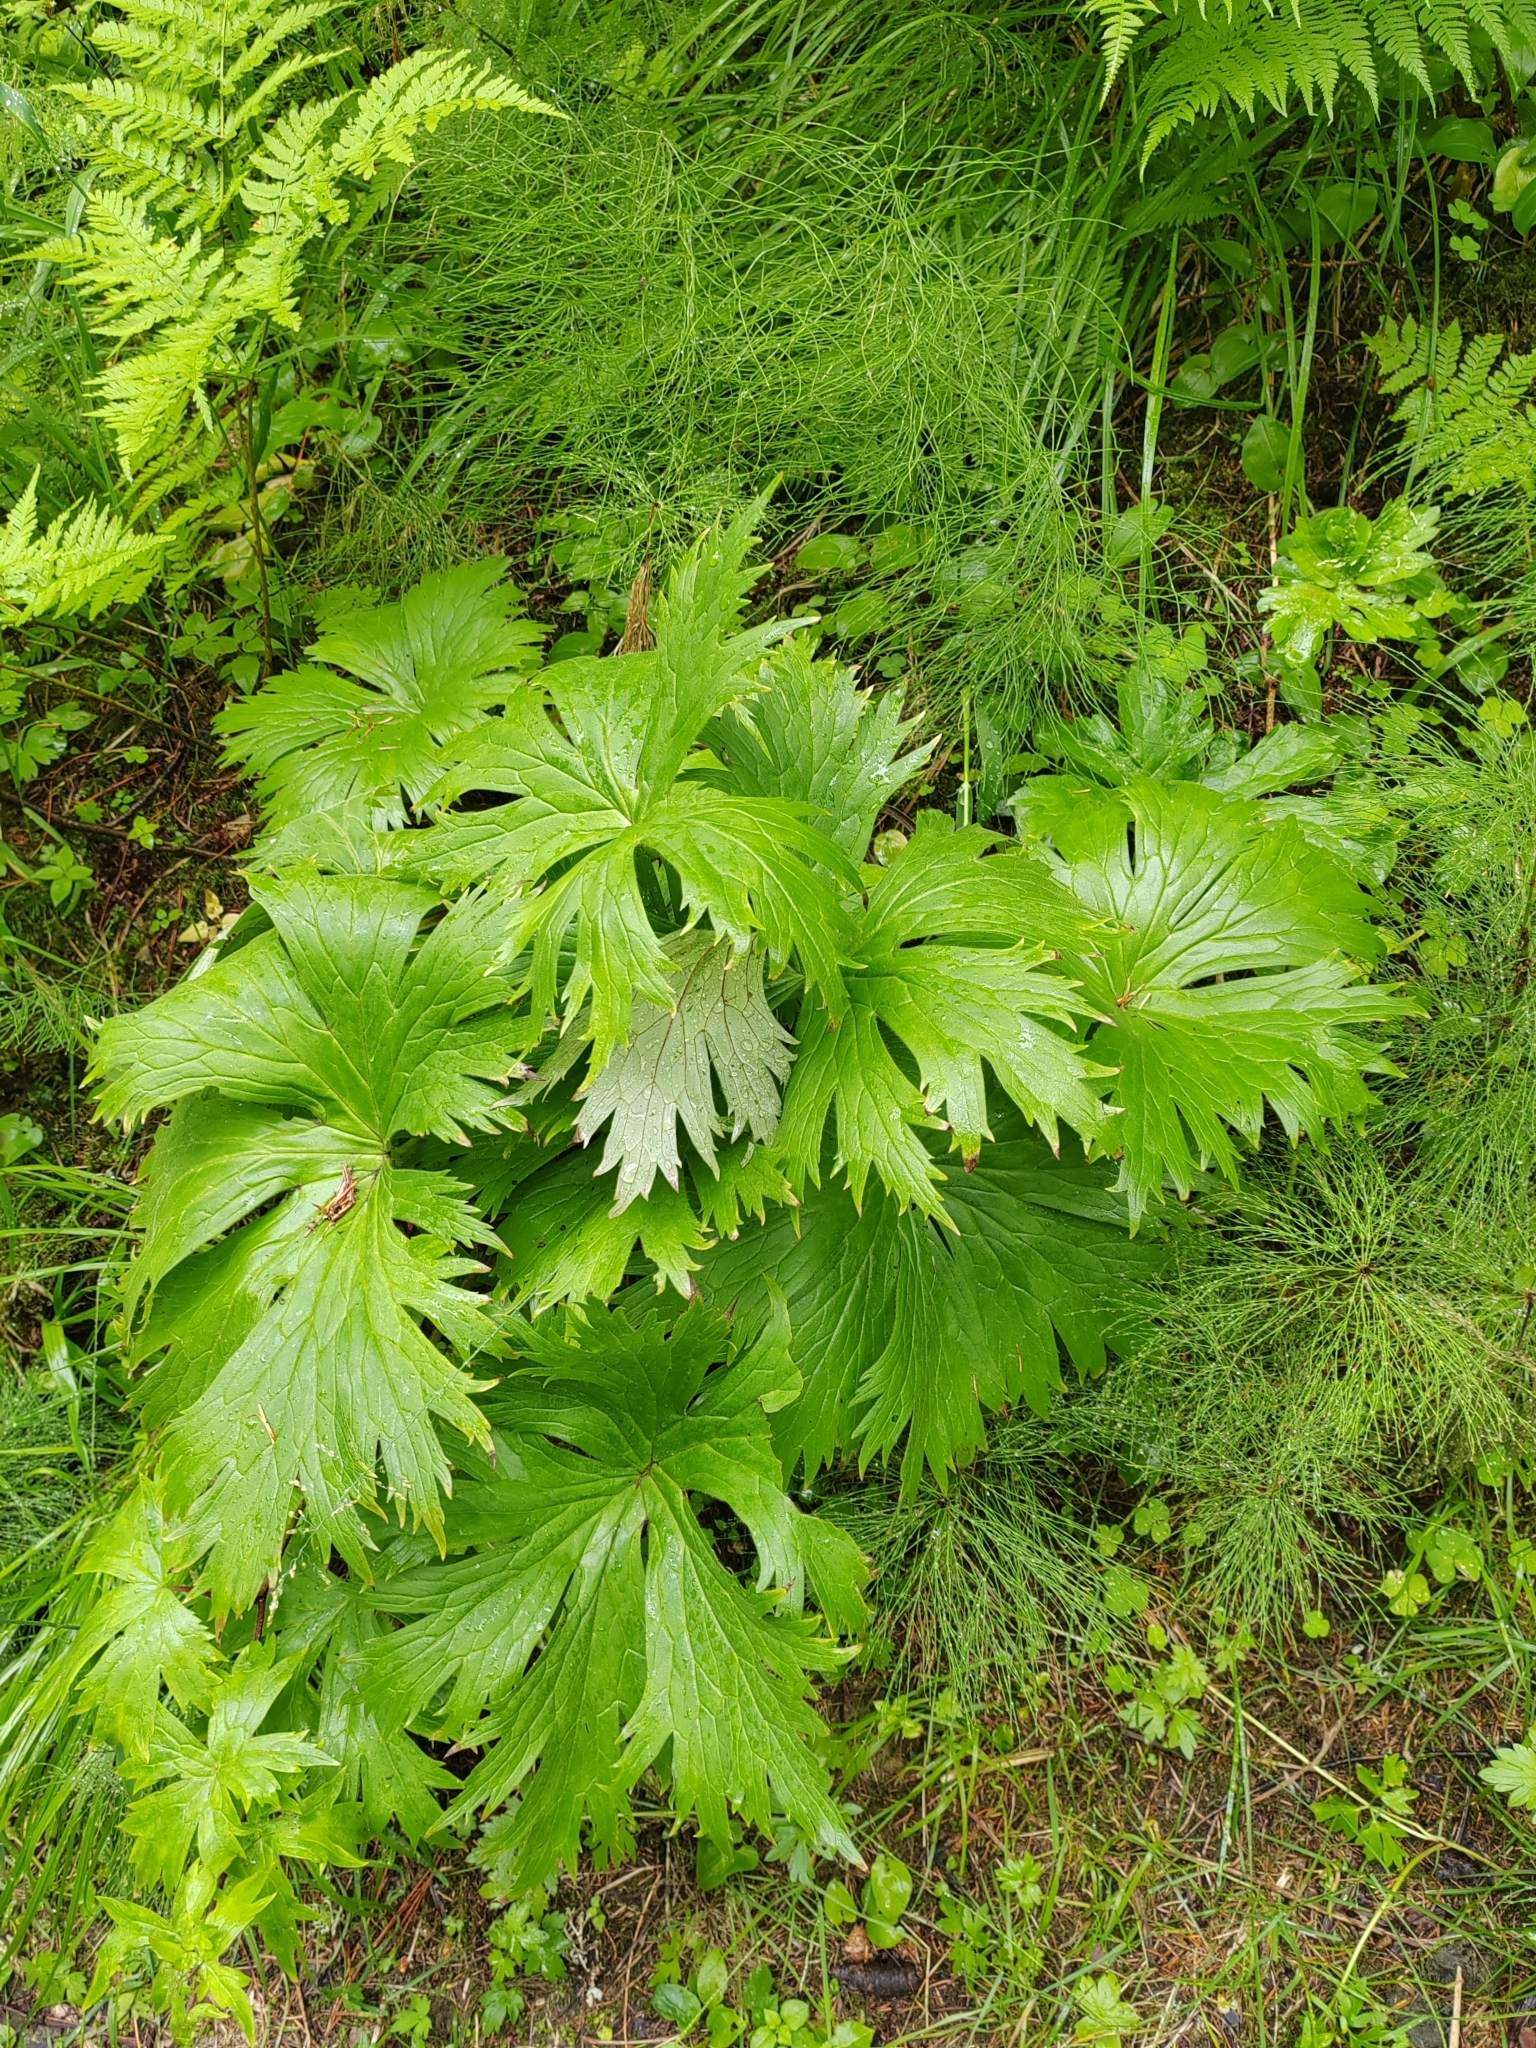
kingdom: Plantae
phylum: Tracheophyta
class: Magnoliopsida
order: Ranunculales
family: Ranunculaceae
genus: Aconitum
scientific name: Aconitum septentrionale
